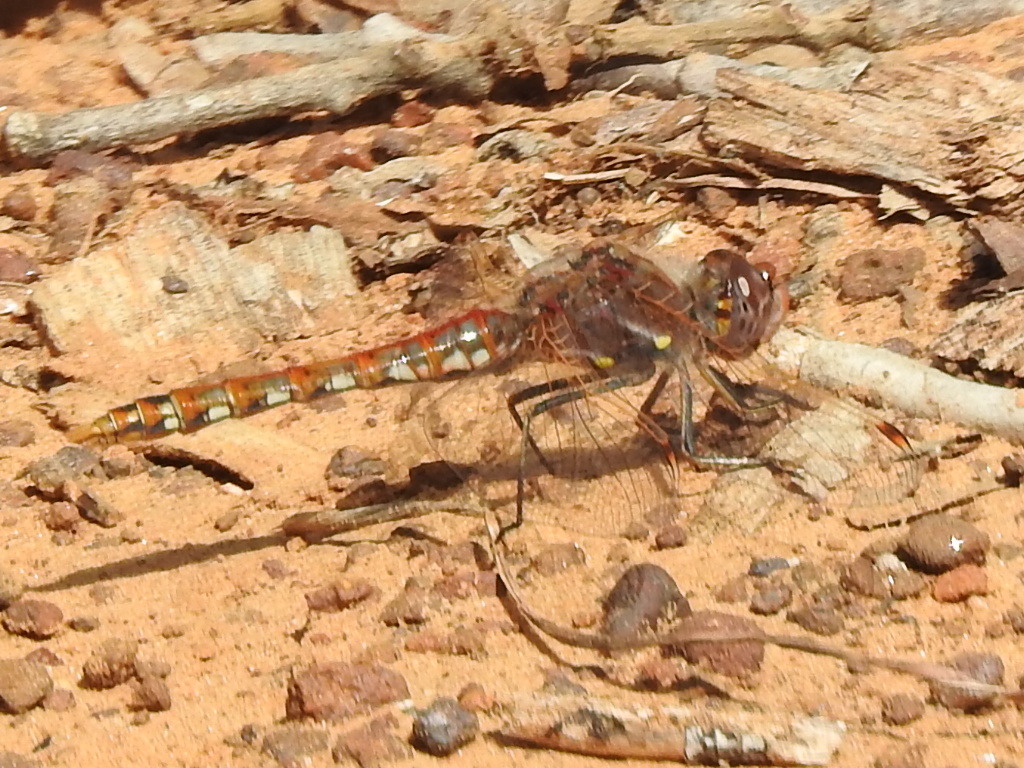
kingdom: Animalia
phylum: Arthropoda
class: Insecta
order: Odonata
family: Libellulidae
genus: Sympetrum
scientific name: Sympetrum corruptum
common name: Variegated meadowhawk
